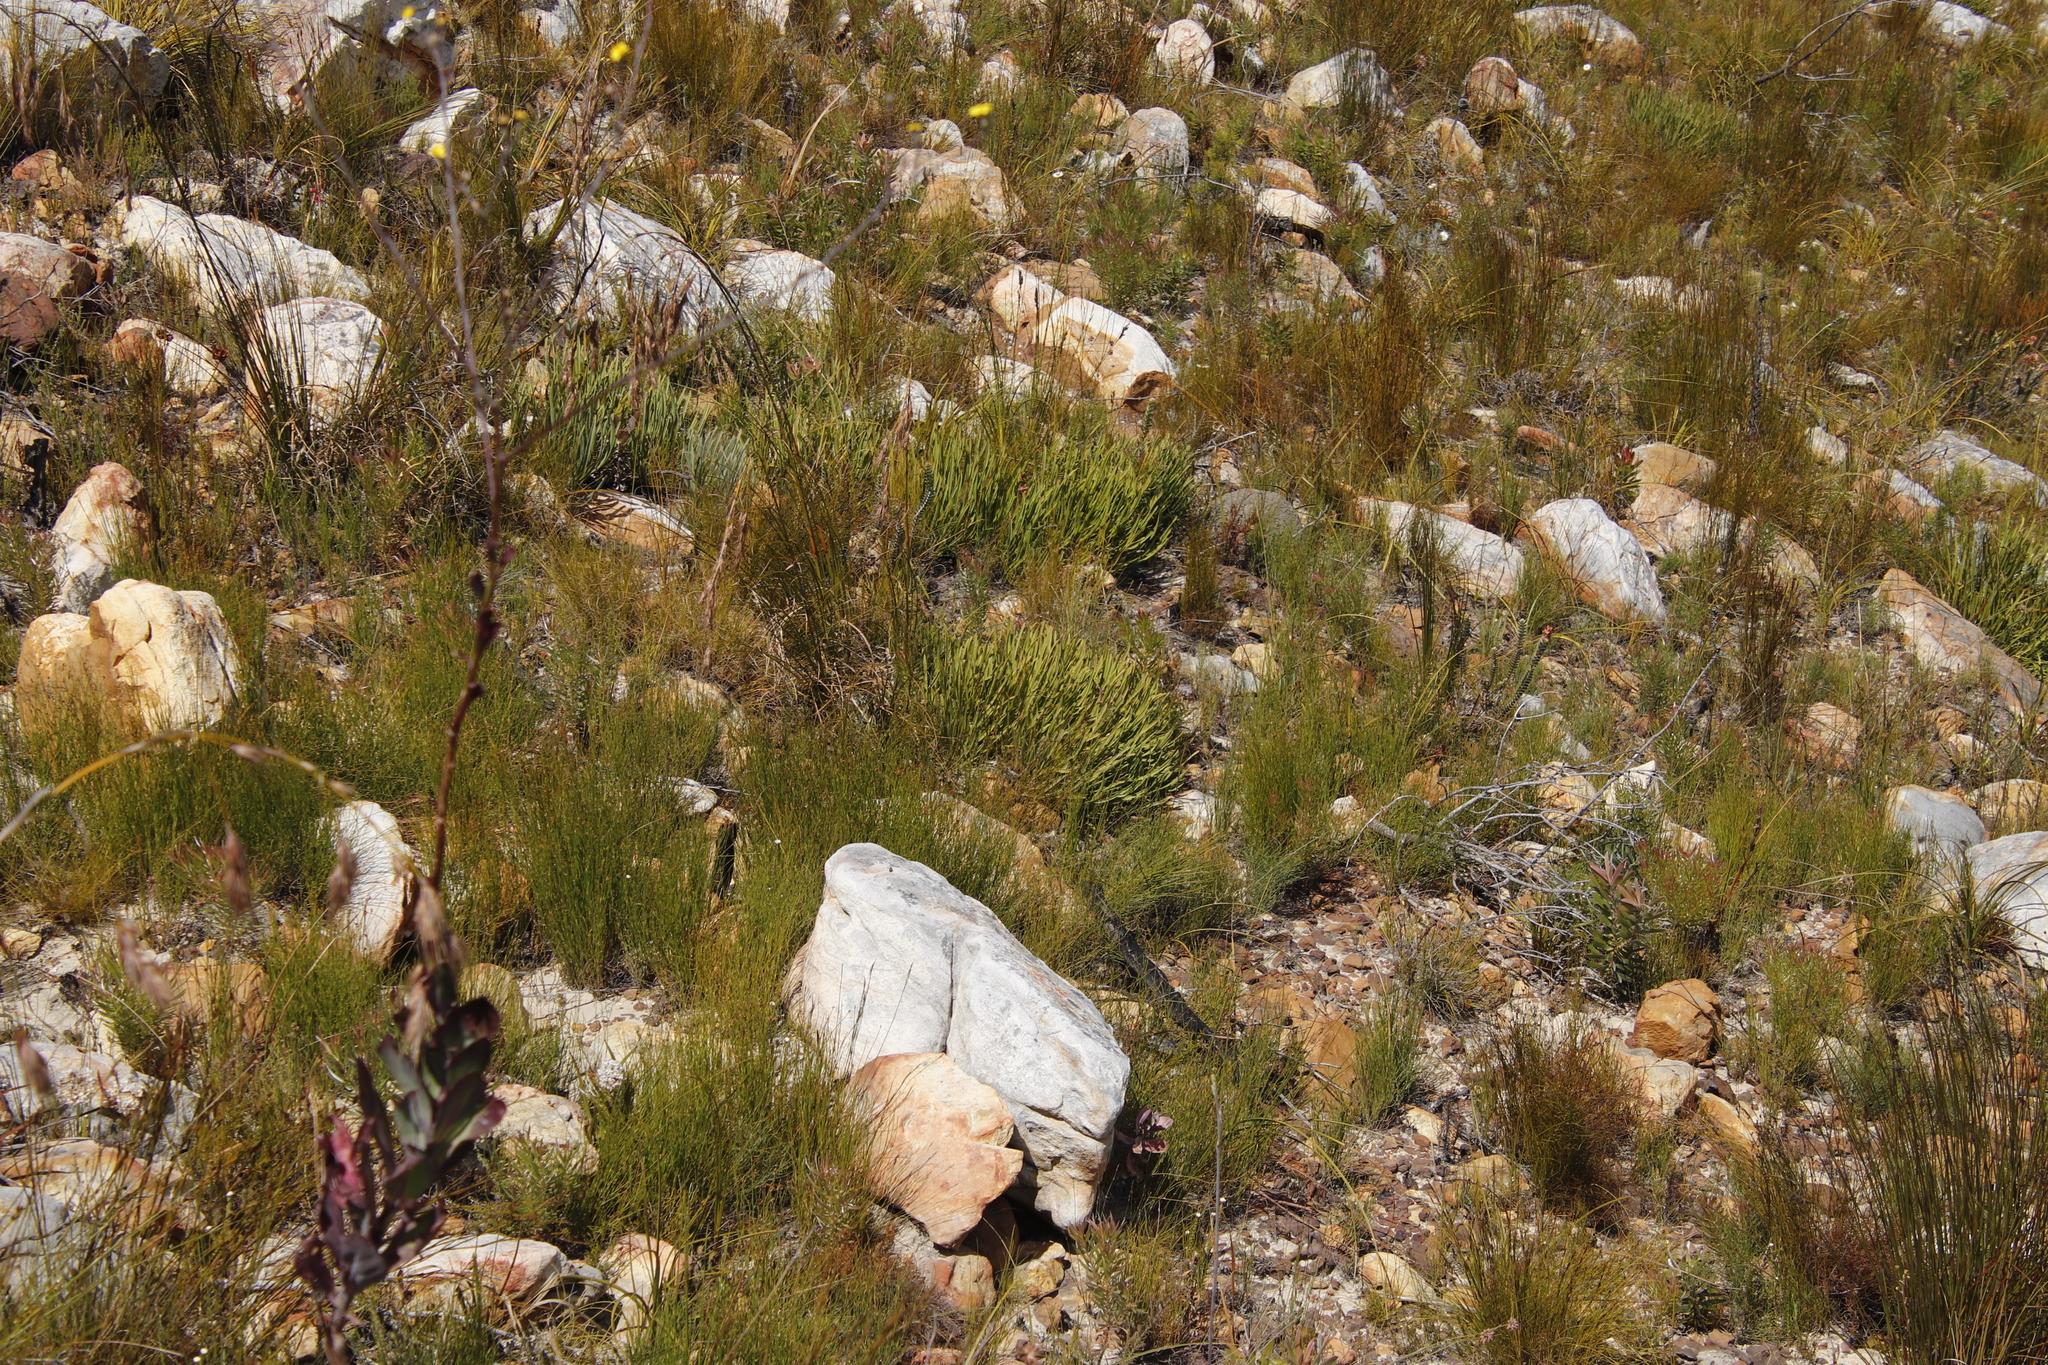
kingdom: Plantae
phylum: Tracheophyta
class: Magnoliopsida
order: Proteales
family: Proteaceae
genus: Protea
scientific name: Protea scabra
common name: Sandpaper-leaf sugarbush
